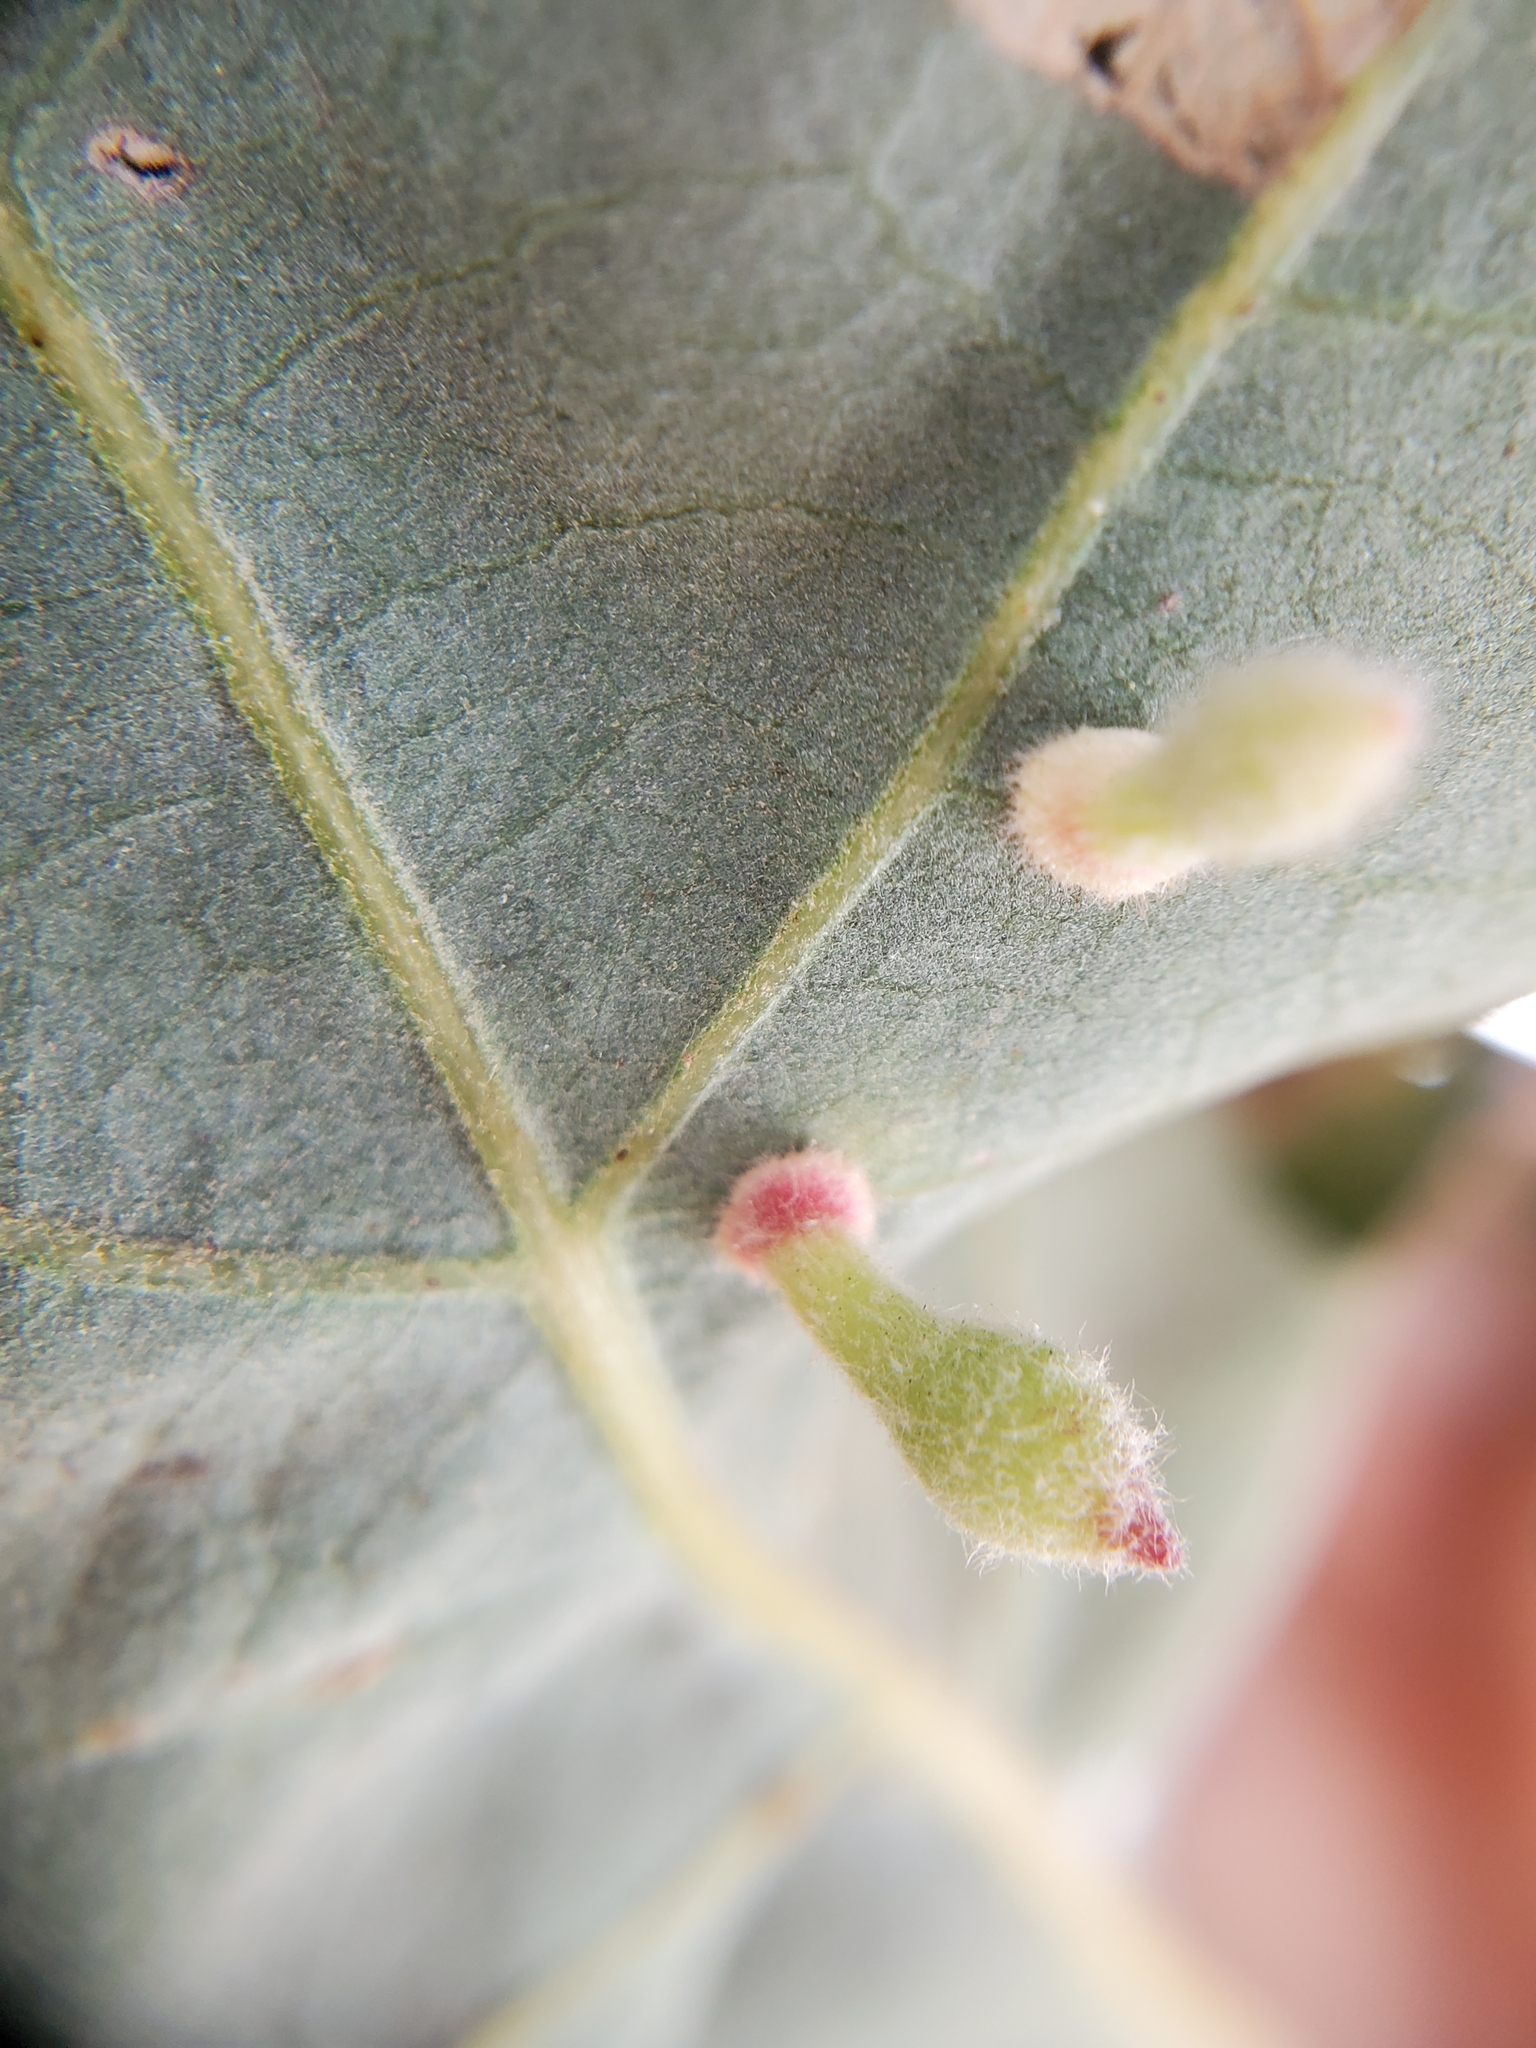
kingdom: Animalia
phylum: Arthropoda
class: Insecta
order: Hymenoptera
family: Cynipidae
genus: Atrusca
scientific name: Atrusca
